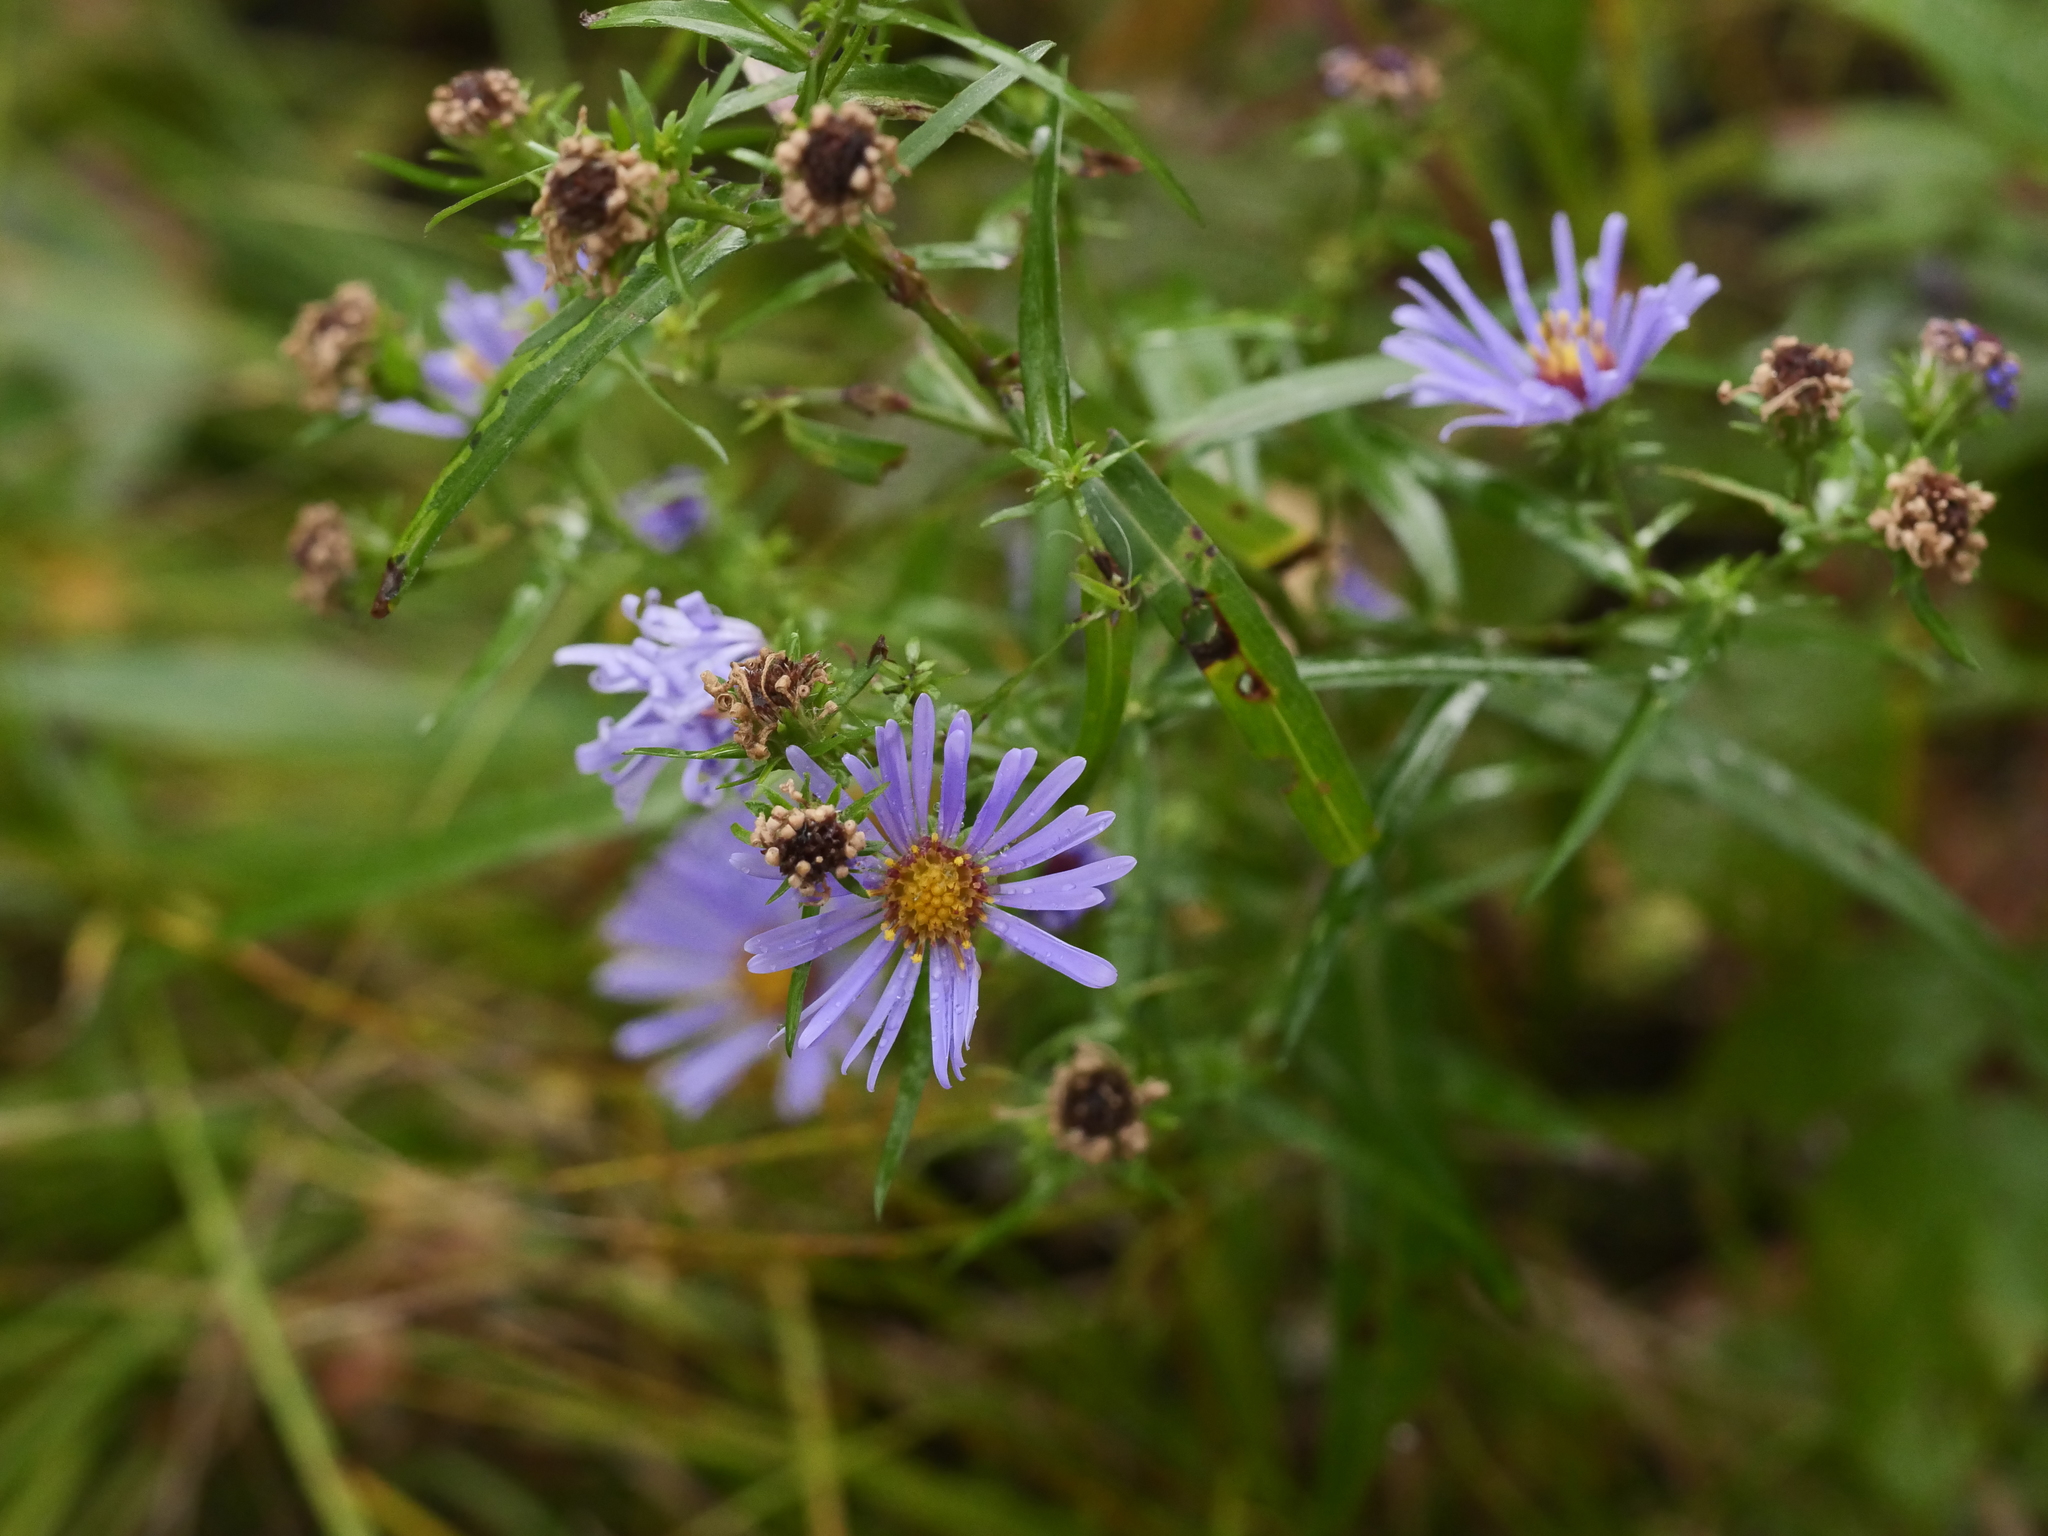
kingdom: Plantae
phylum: Tracheophyta
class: Magnoliopsida
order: Asterales
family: Asteraceae
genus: Symphyotrichum
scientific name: Symphyotrichum novi-belgii
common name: Michaelmas daisy
